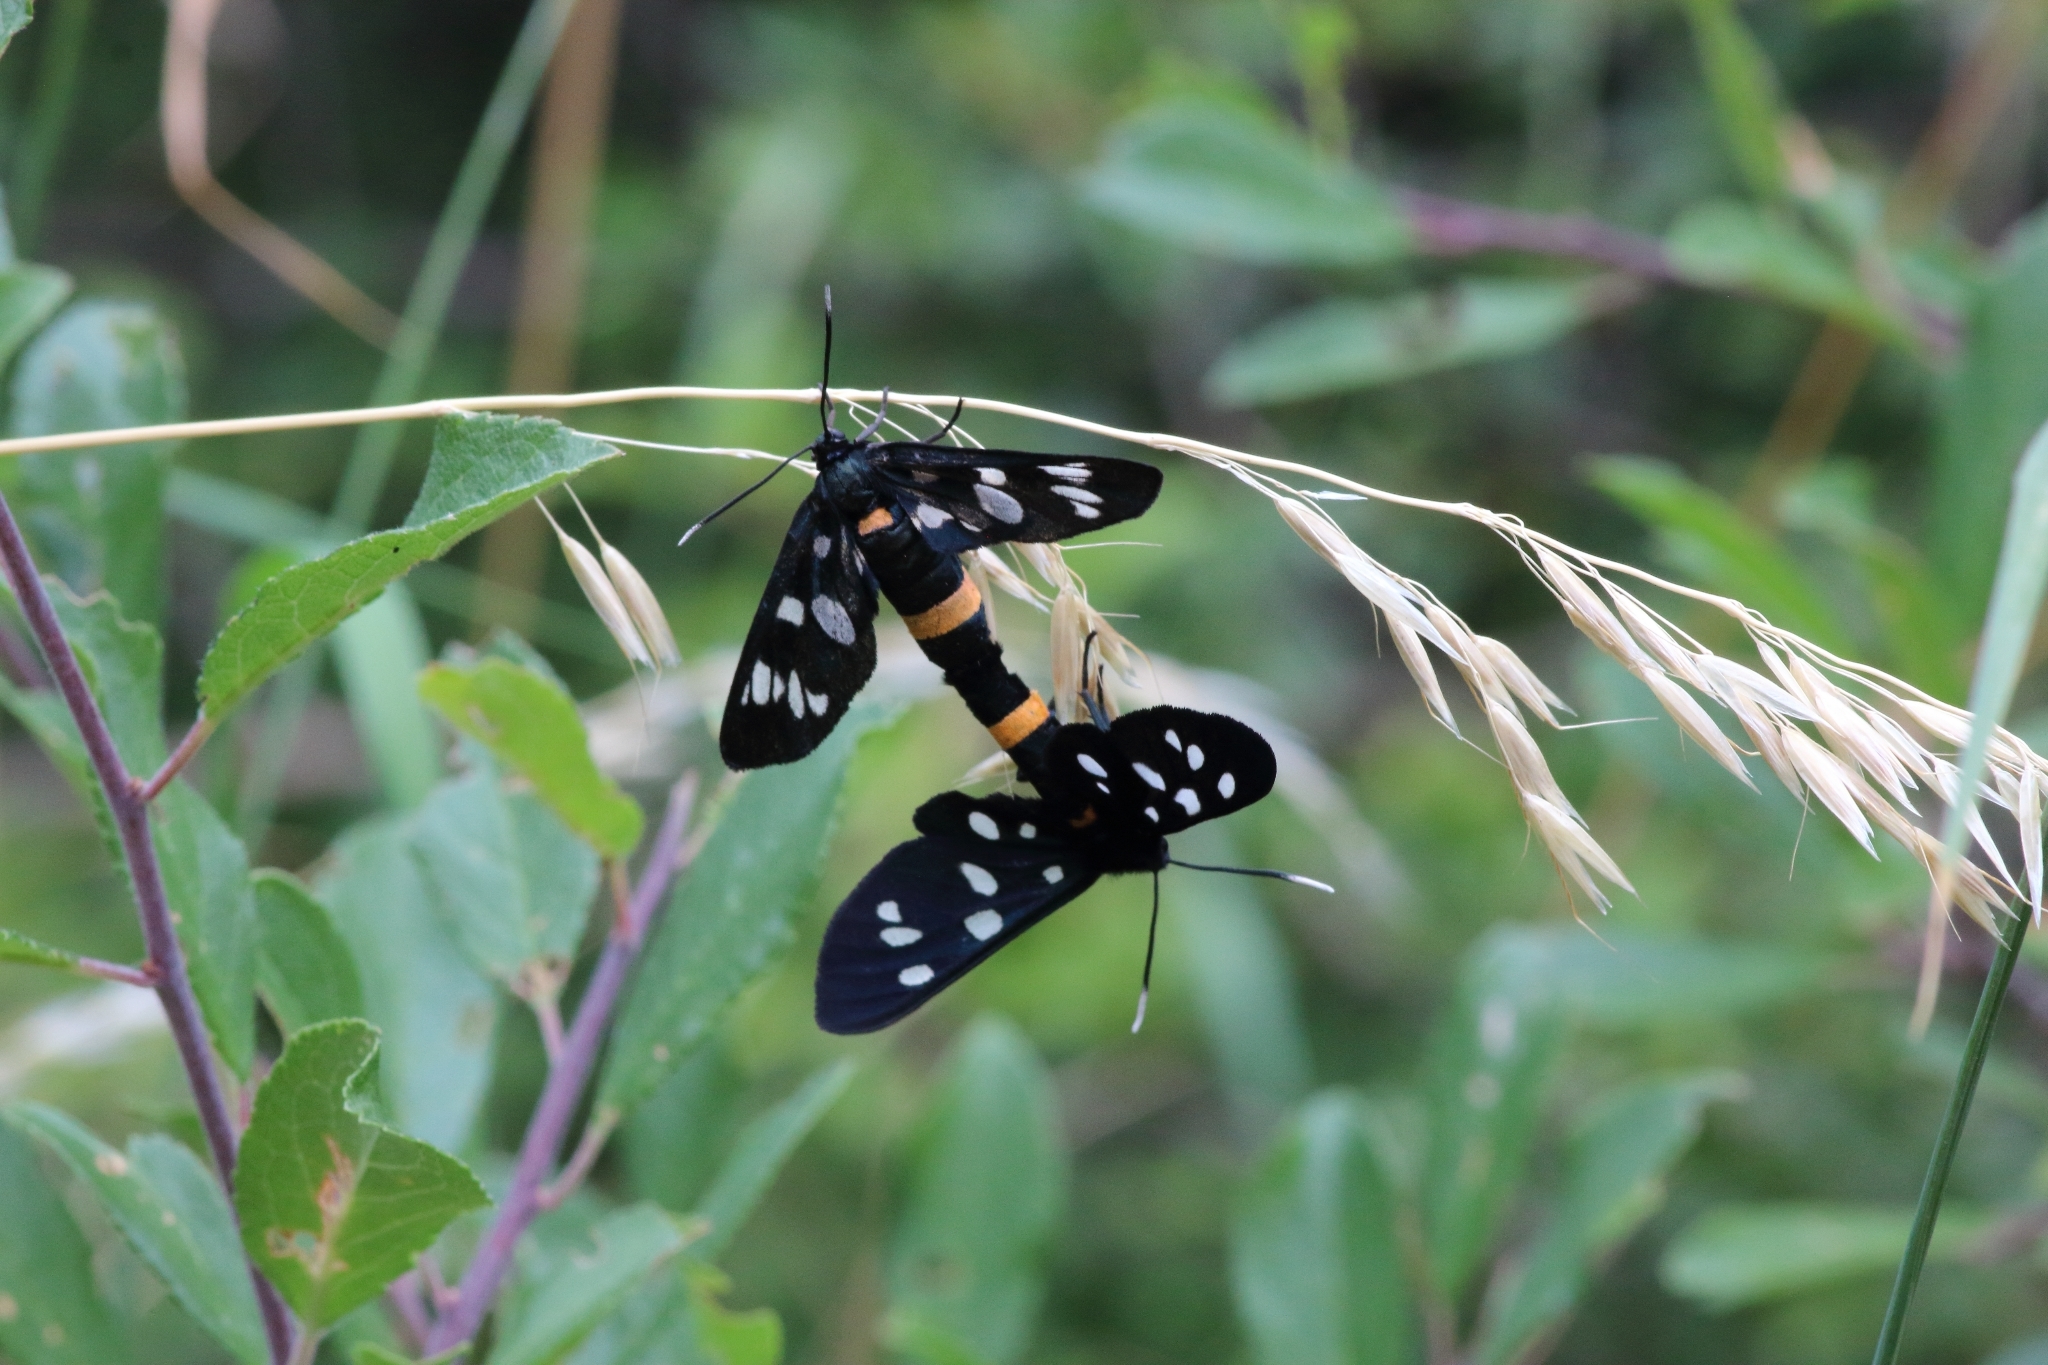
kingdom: Animalia
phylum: Arthropoda
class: Insecta
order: Lepidoptera
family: Erebidae
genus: Amata
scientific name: Amata phegea
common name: Nine-spotted
